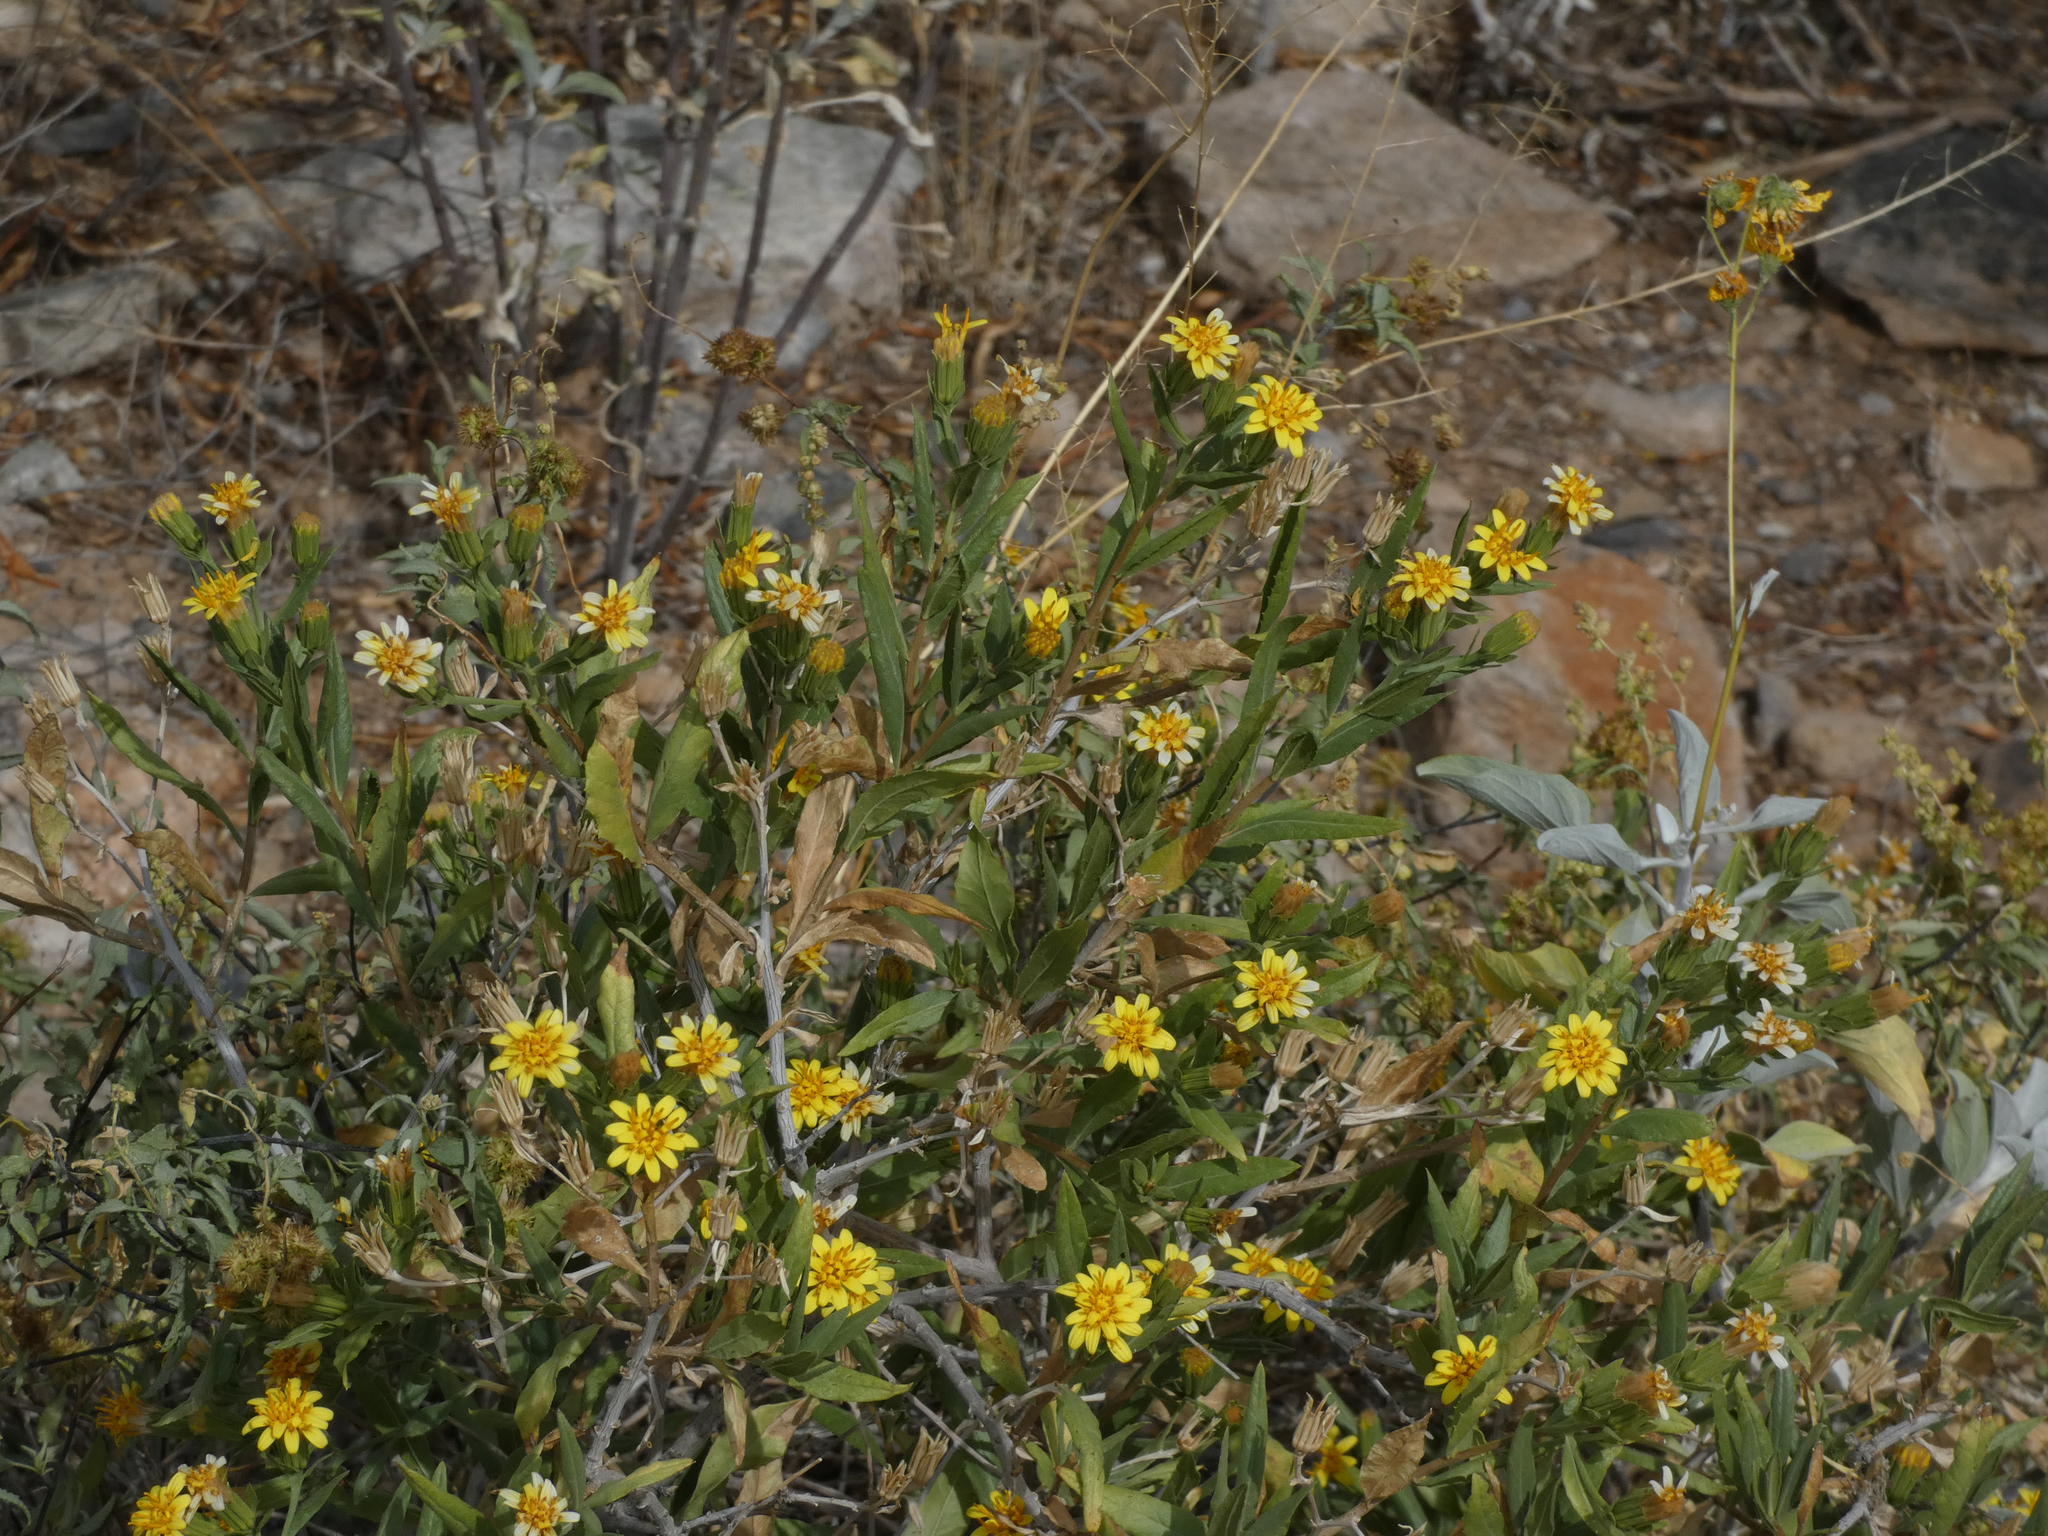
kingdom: Plantae
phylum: Tracheophyta
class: Magnoliopsida
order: Asterales
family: Asteraceae
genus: Trixis
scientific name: Trixis californica
